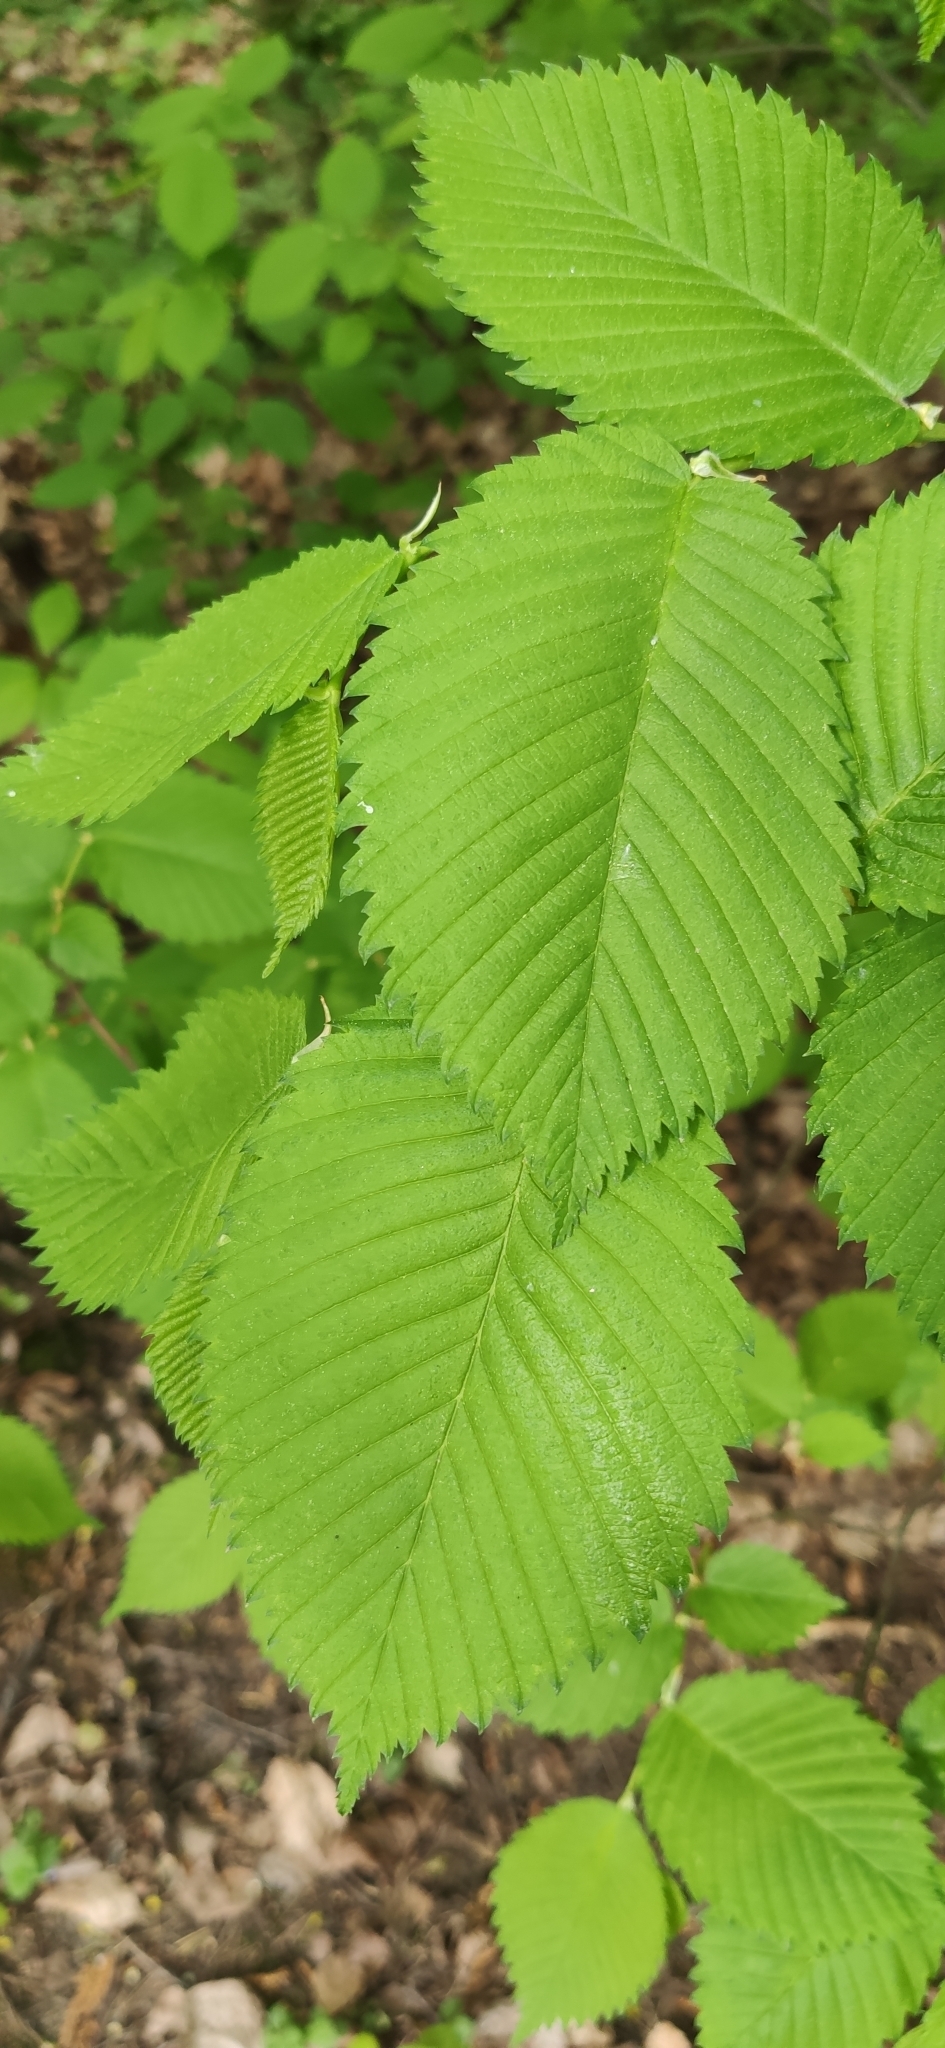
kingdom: Plantae
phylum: Tracheophyta
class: Magnoliopsida
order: Rosales
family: Ulmaceae
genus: Ulmus
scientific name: Ulmus laevis
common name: European white-elm
